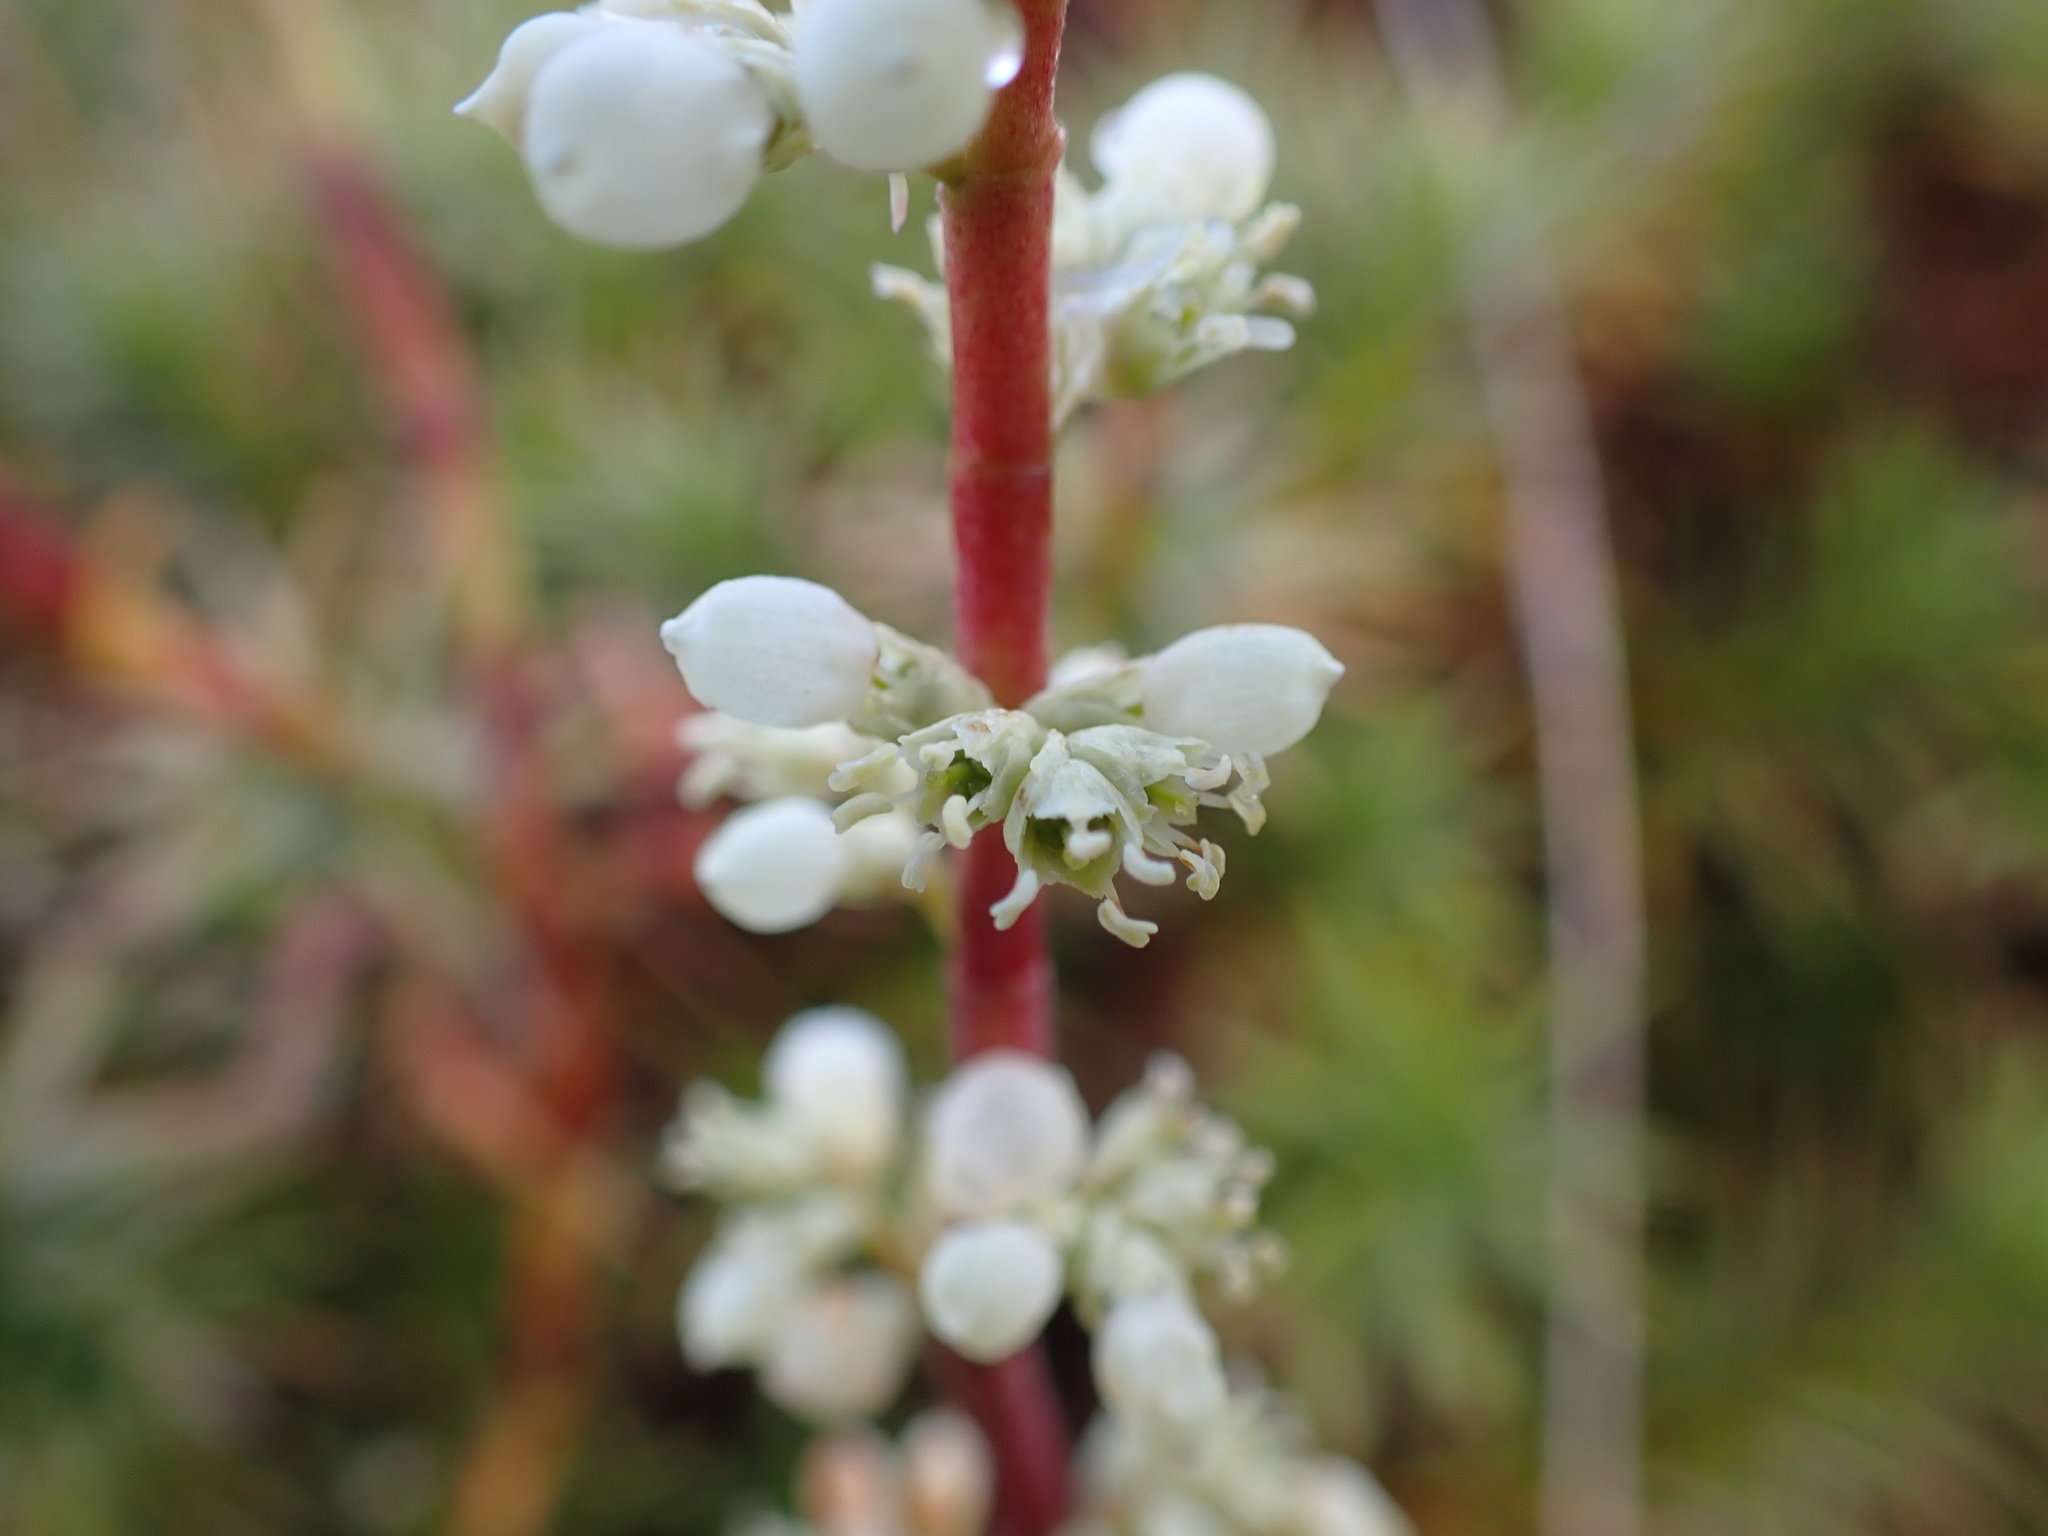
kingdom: Plantae
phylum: Tracheophyta
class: Magnoliopsida
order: Ericales
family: Ericaceae
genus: Dracophyllum
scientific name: Dracophyllum continentis
